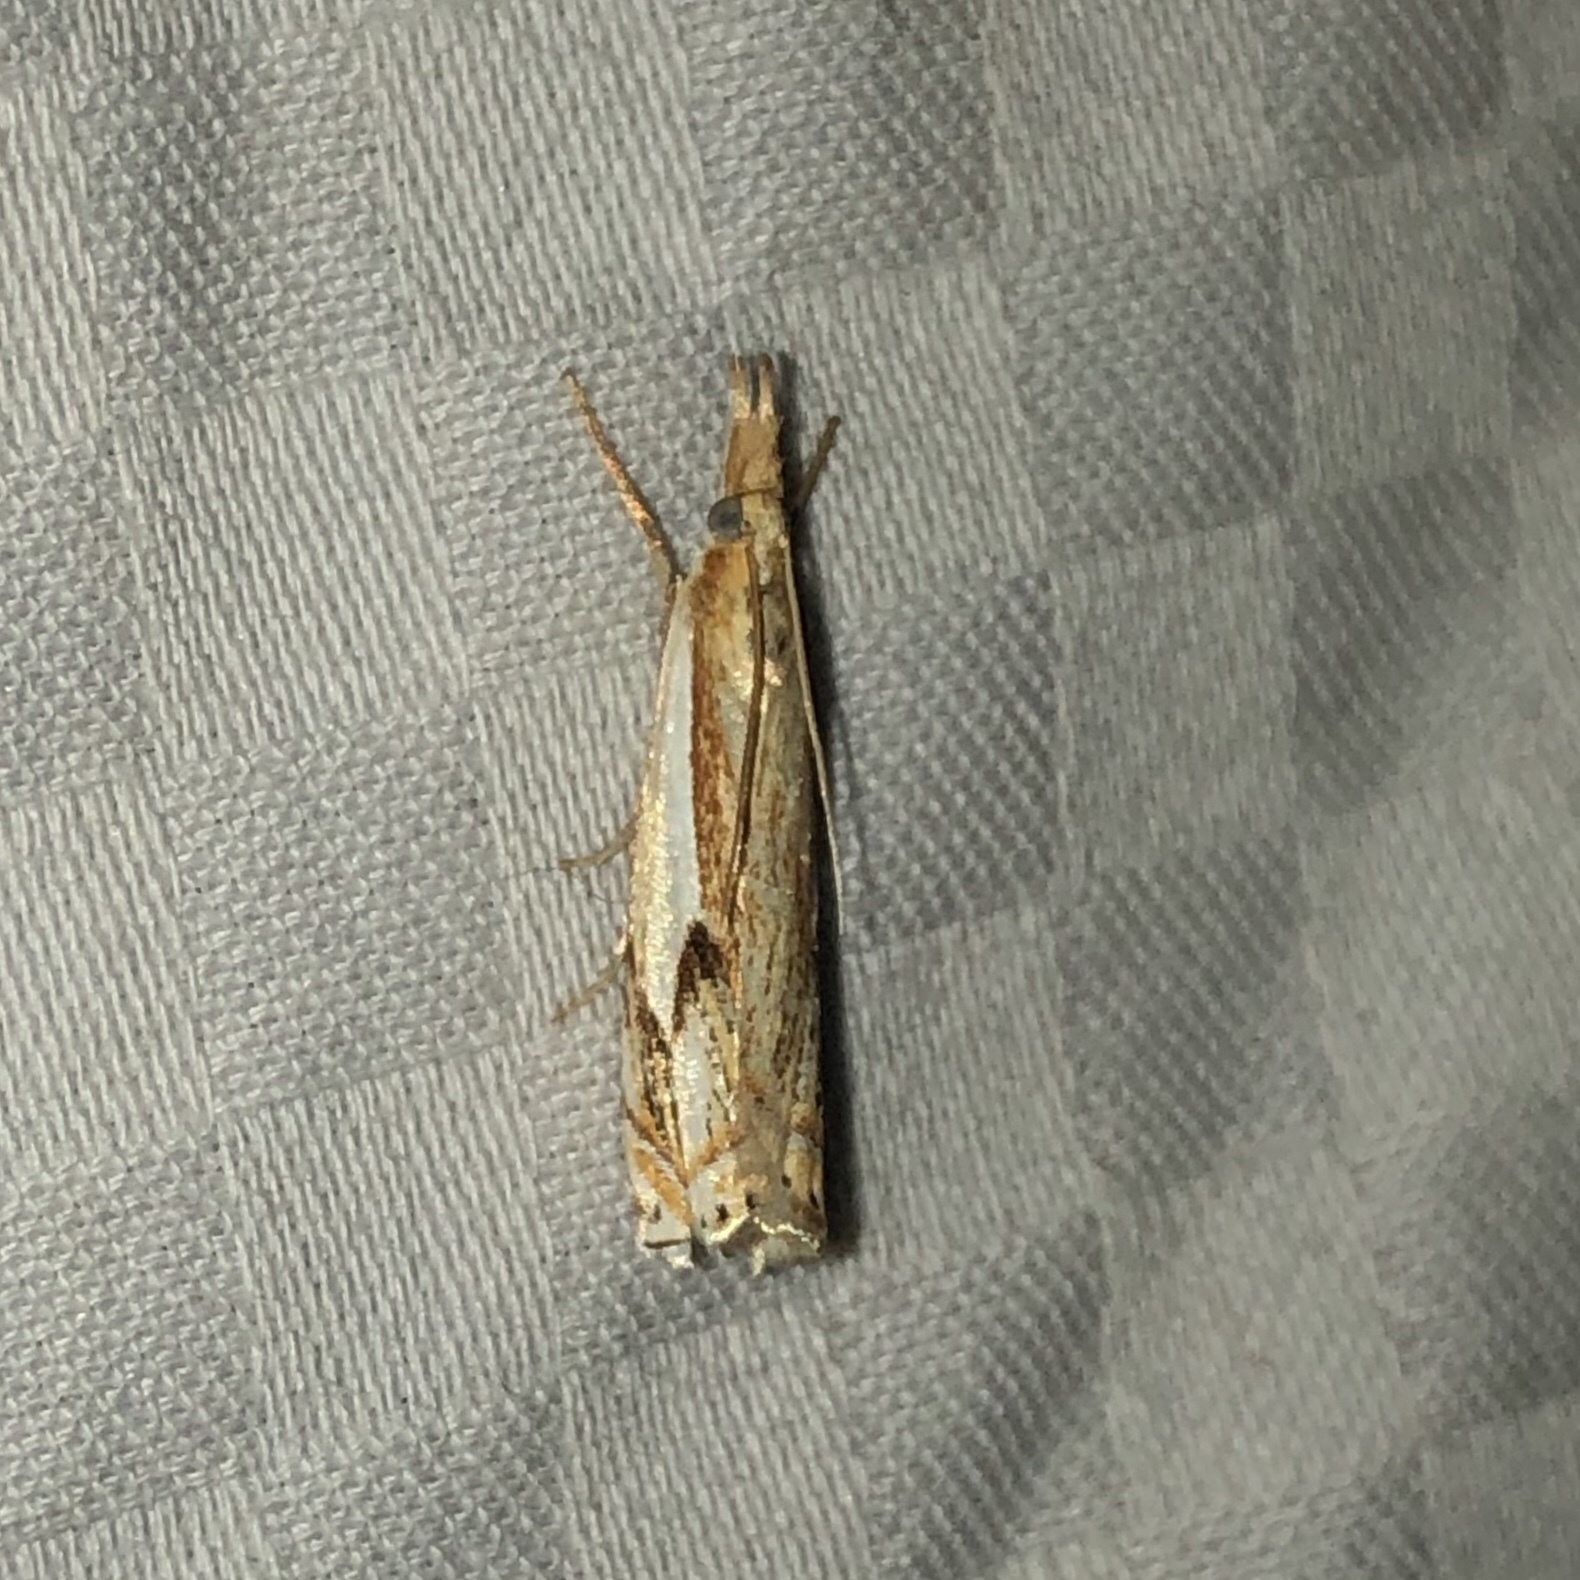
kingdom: Animalia
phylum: Arthropoda
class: Insecta
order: Lepidoptera
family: Crambidae
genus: Crambus
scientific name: Crambus agitatellus
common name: Double-banded grass-veneer
